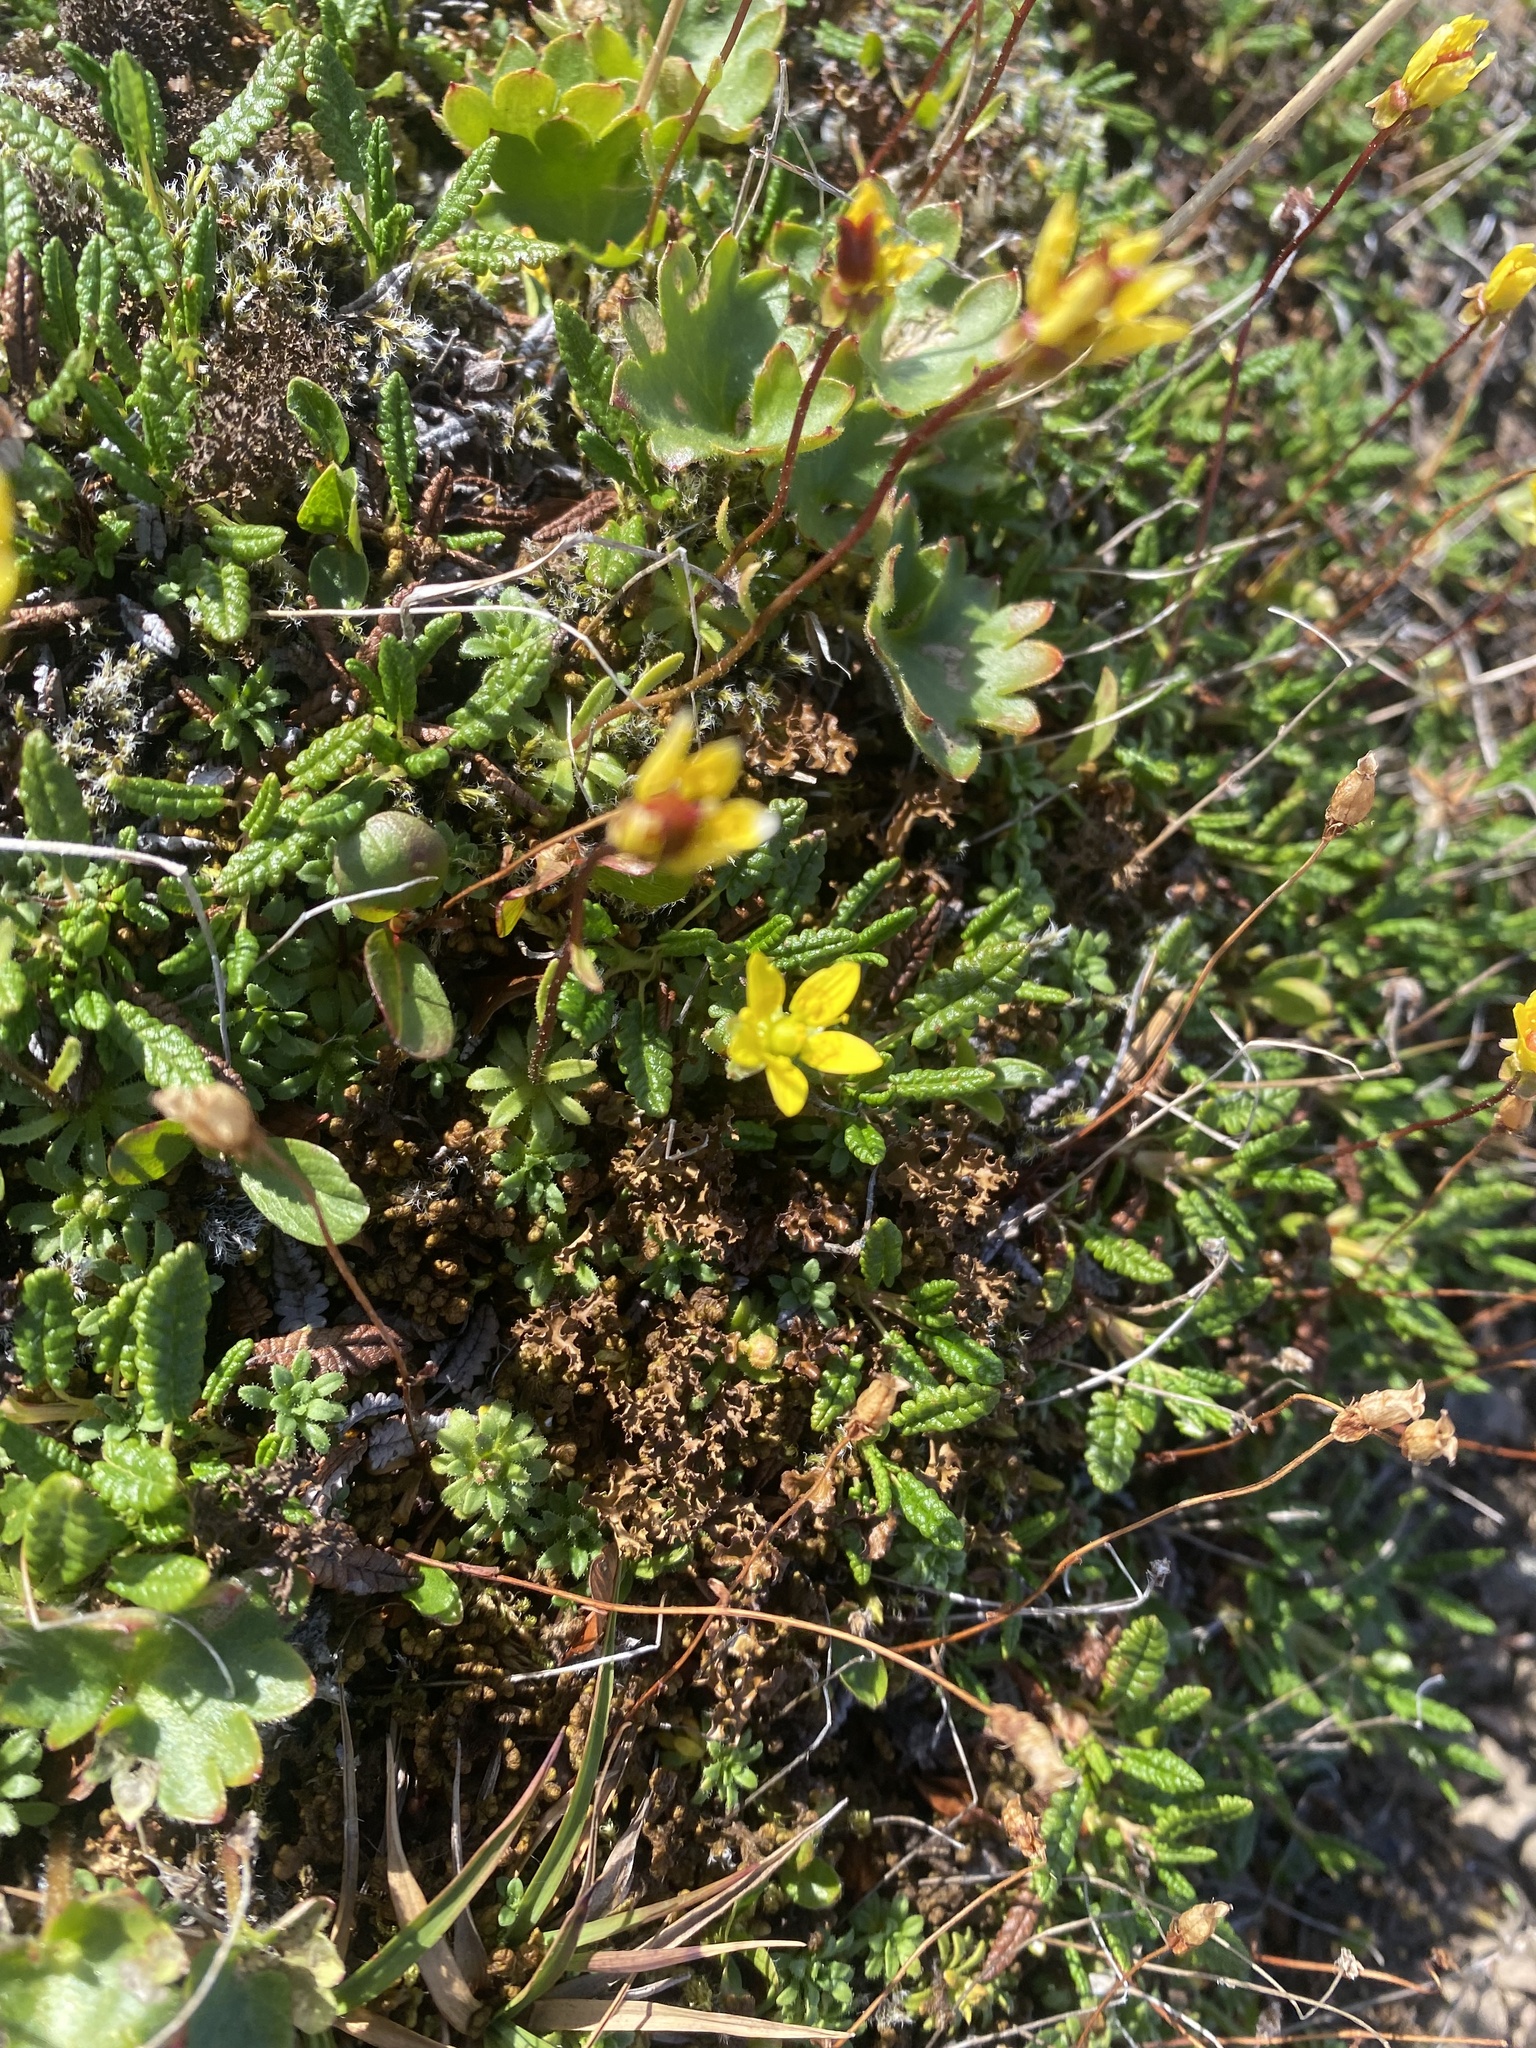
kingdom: Plantae
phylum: Tracheophyta
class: Magnoliopsida
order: Saxifragales
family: Saxifragaceae
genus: Saxifraga
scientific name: Saxifraga serpyllifolia
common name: Thyme-leaved saxifrage
